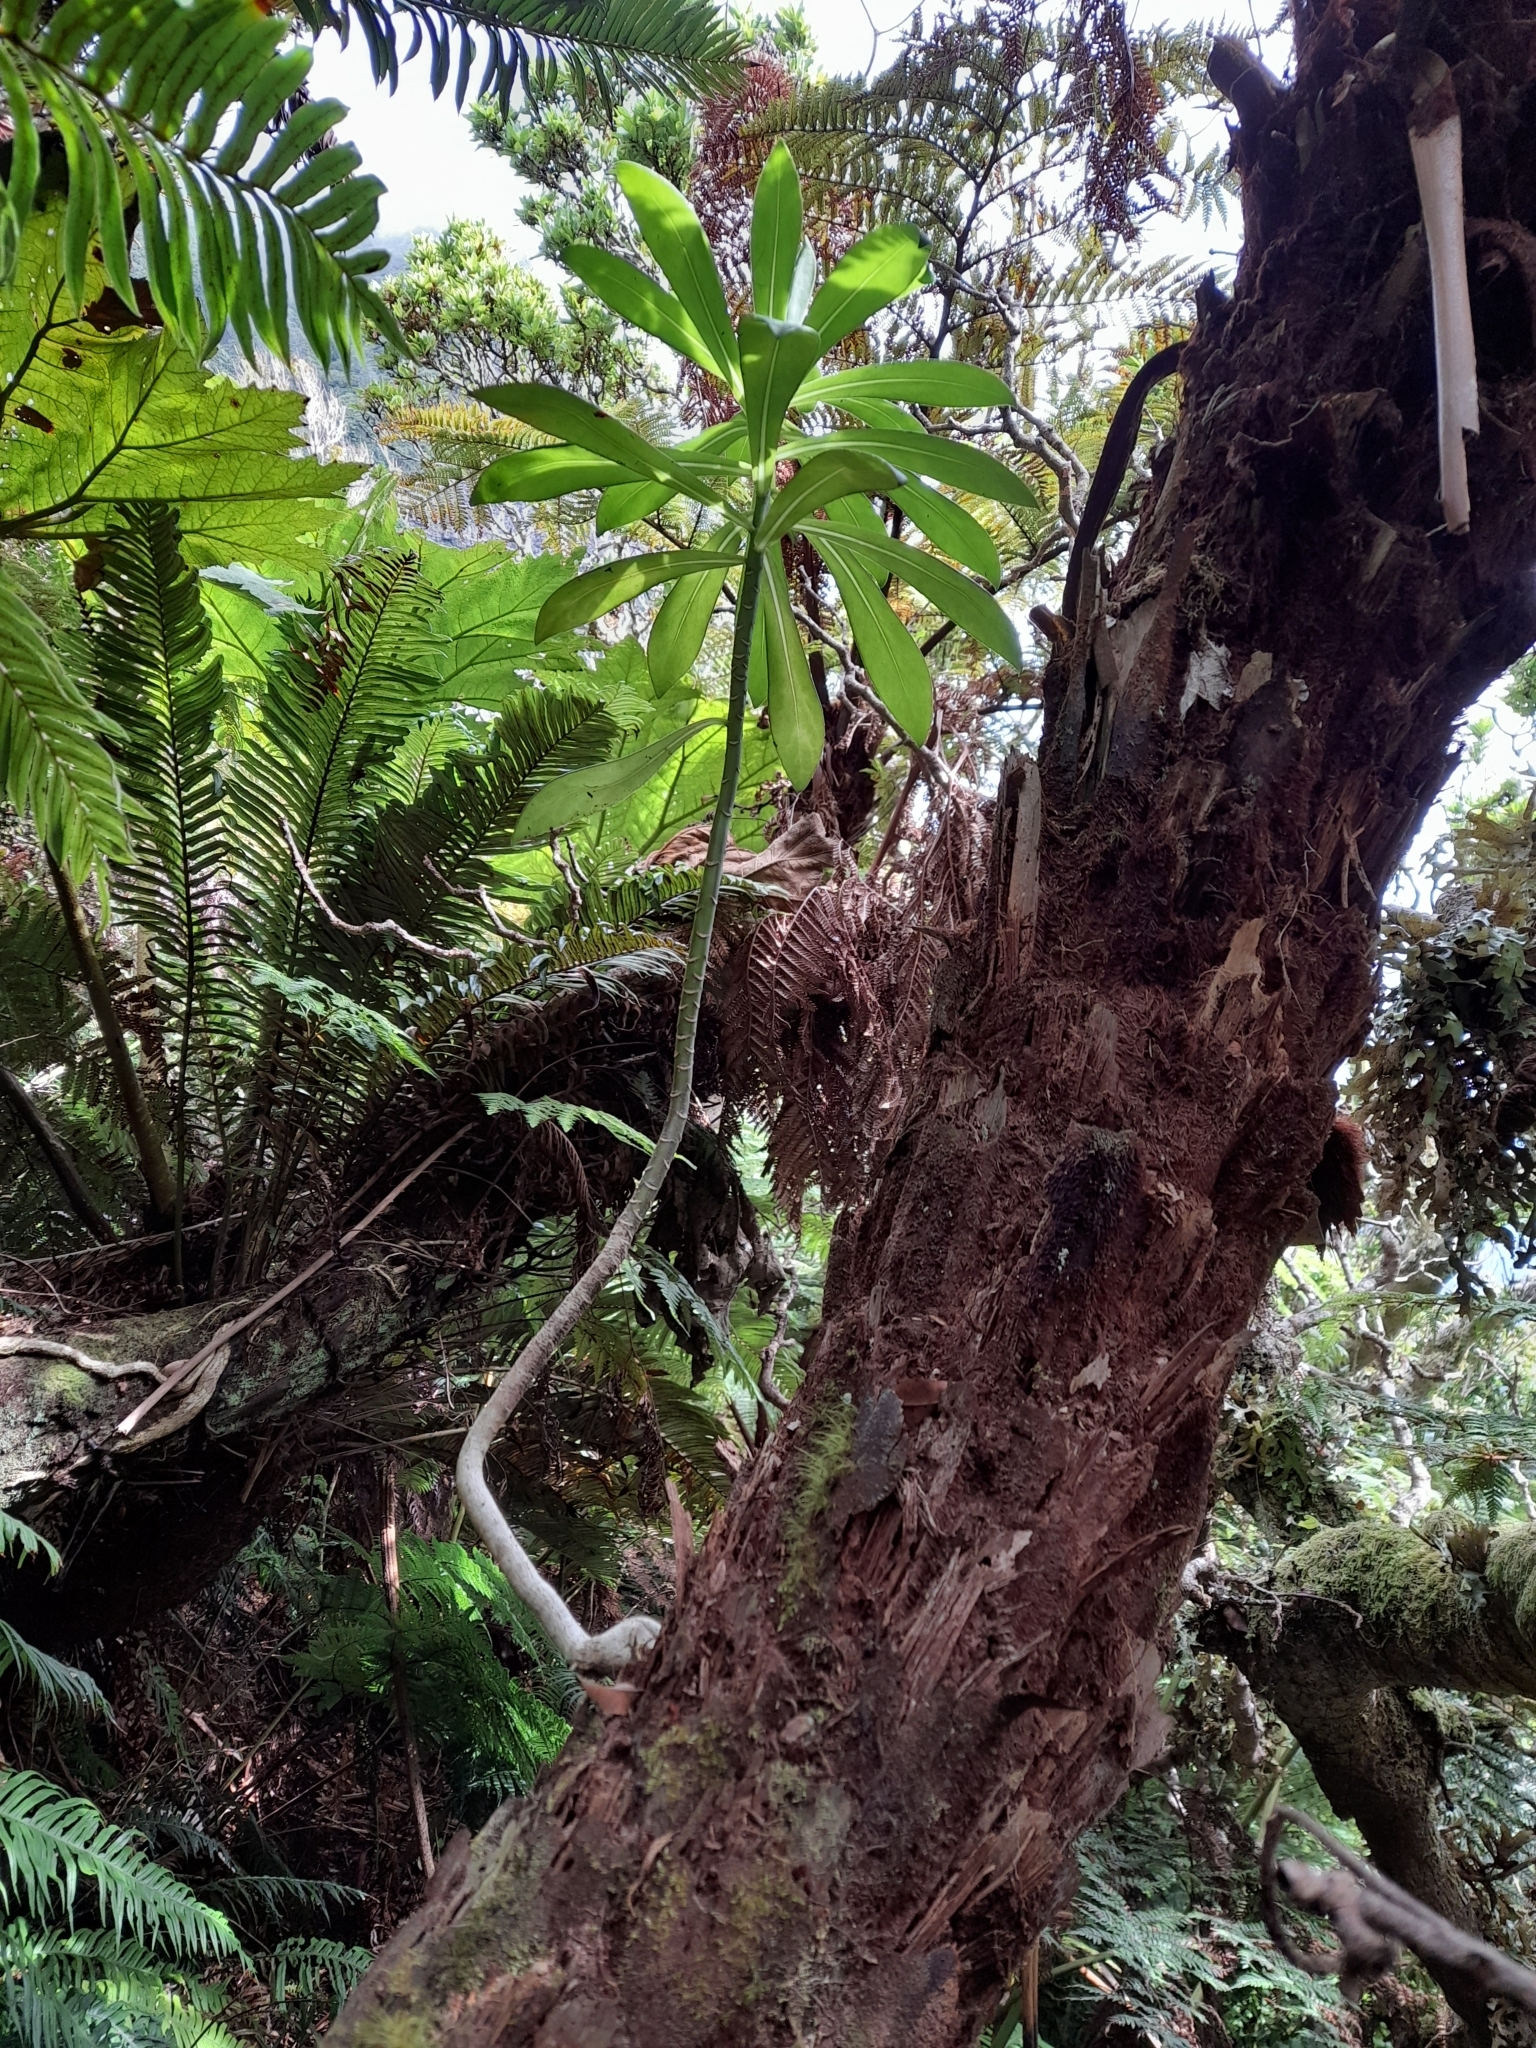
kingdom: Plantae
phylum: Tracheophyta
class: Magnoliopsida
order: Asterales
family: Asteraceae
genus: Robinsonia
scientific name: Robinsonia evenia
